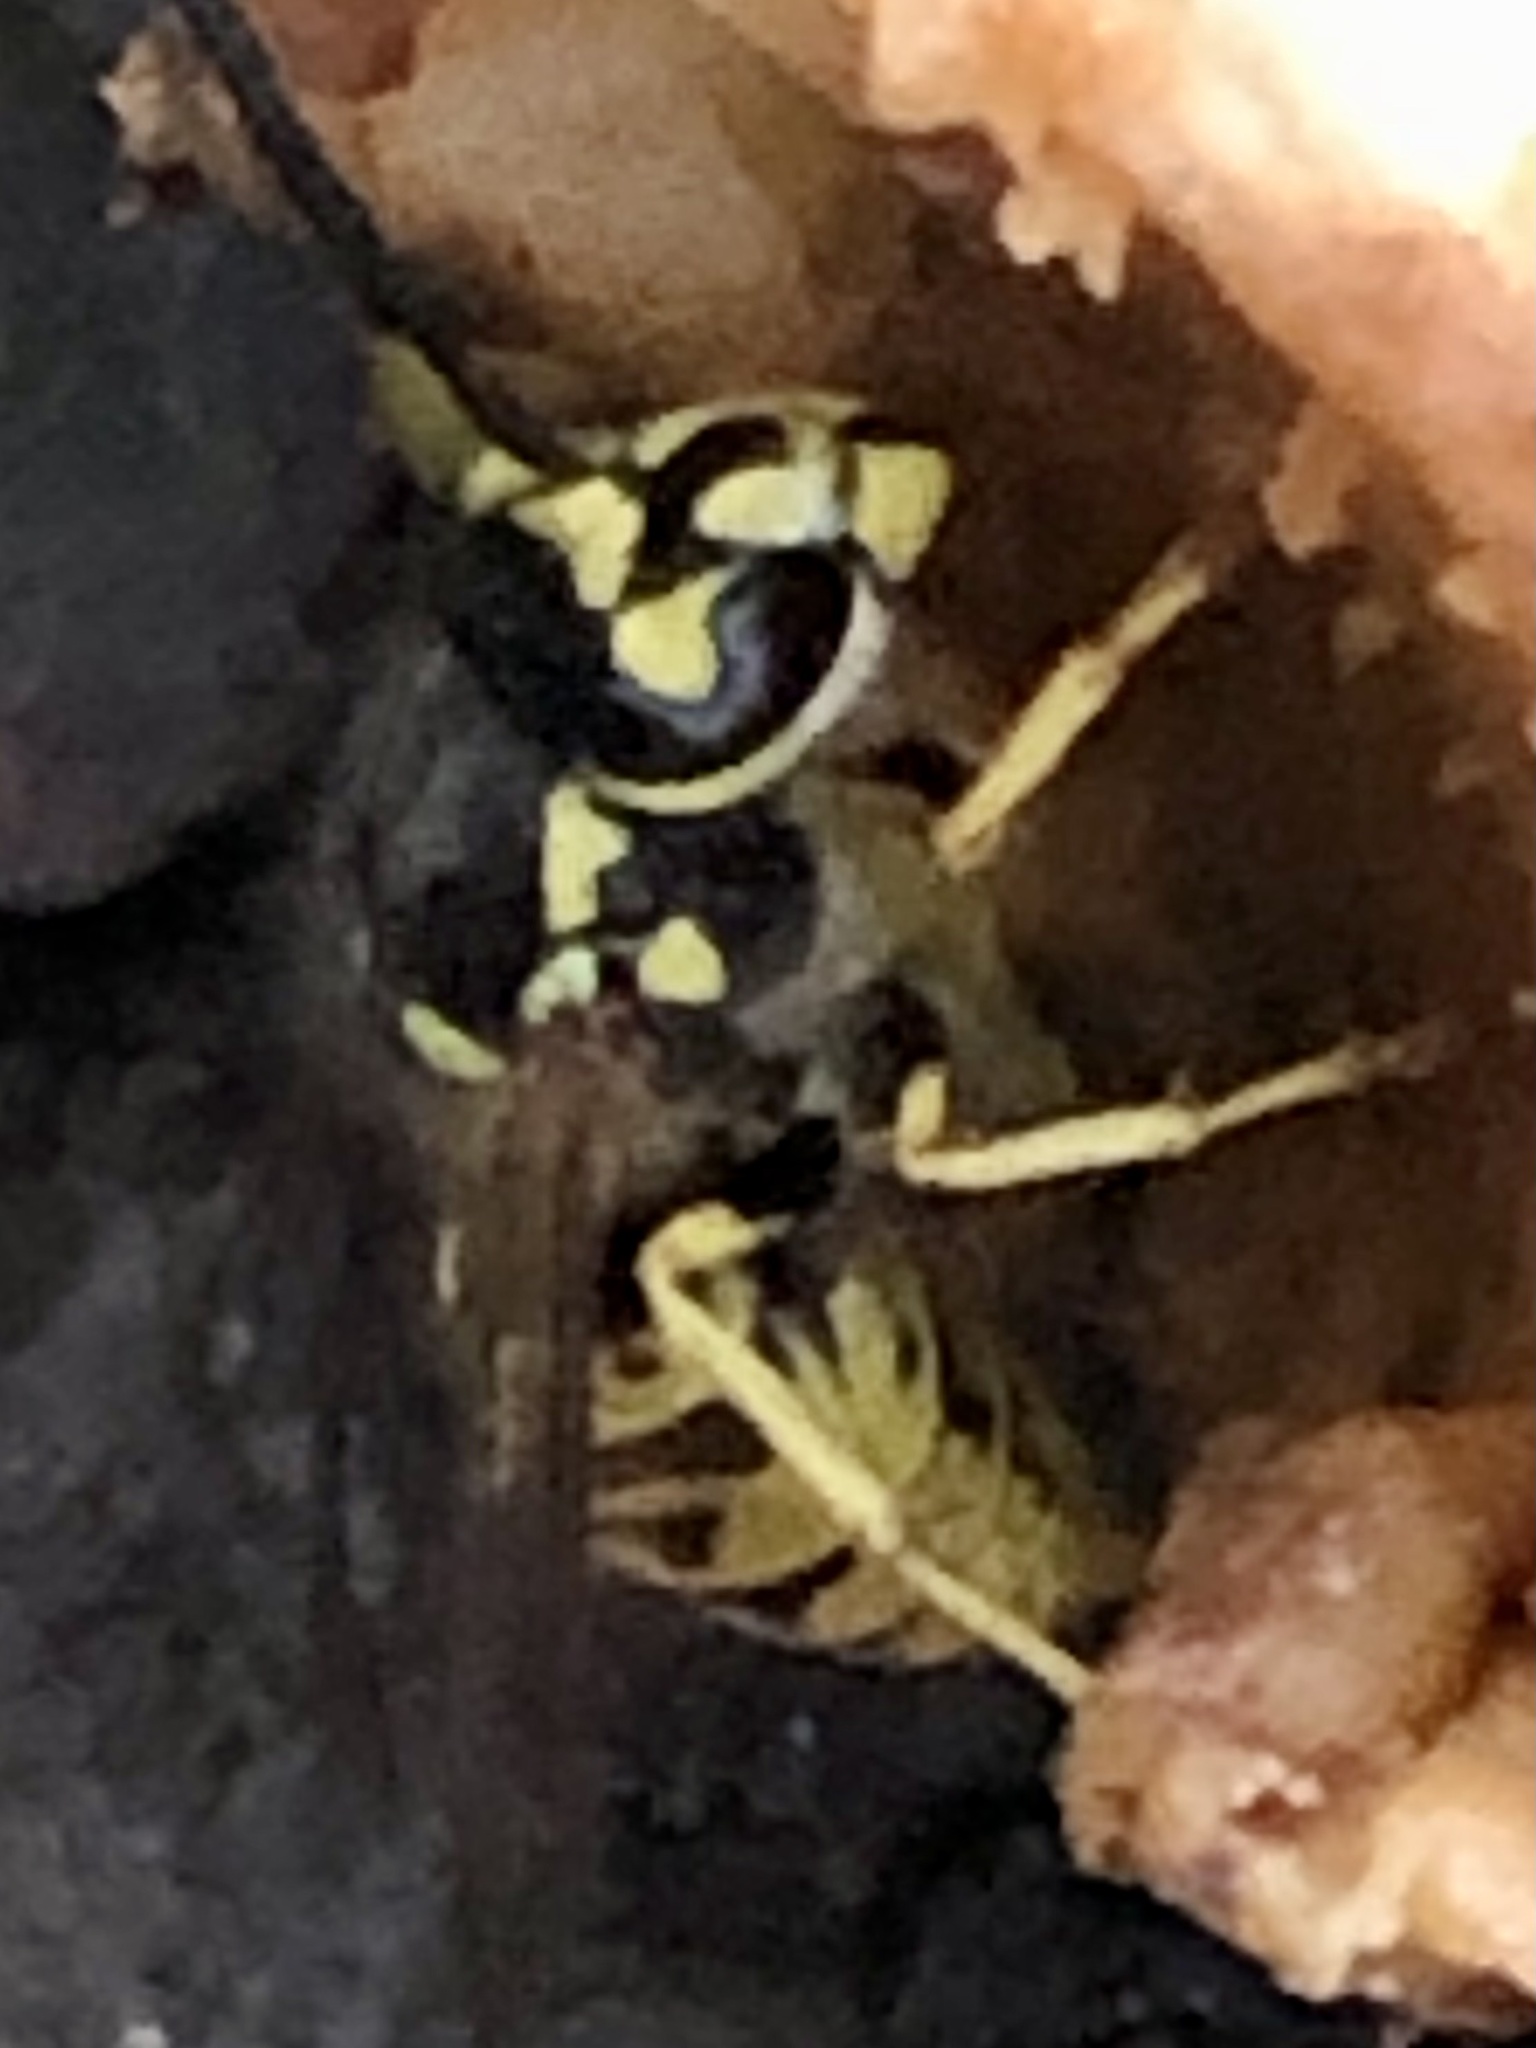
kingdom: Animalia
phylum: Arthropoda
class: Insecta
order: Hymenoptera
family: Vespidae
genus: Vespula
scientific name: Vespula germanica
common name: German wasp
